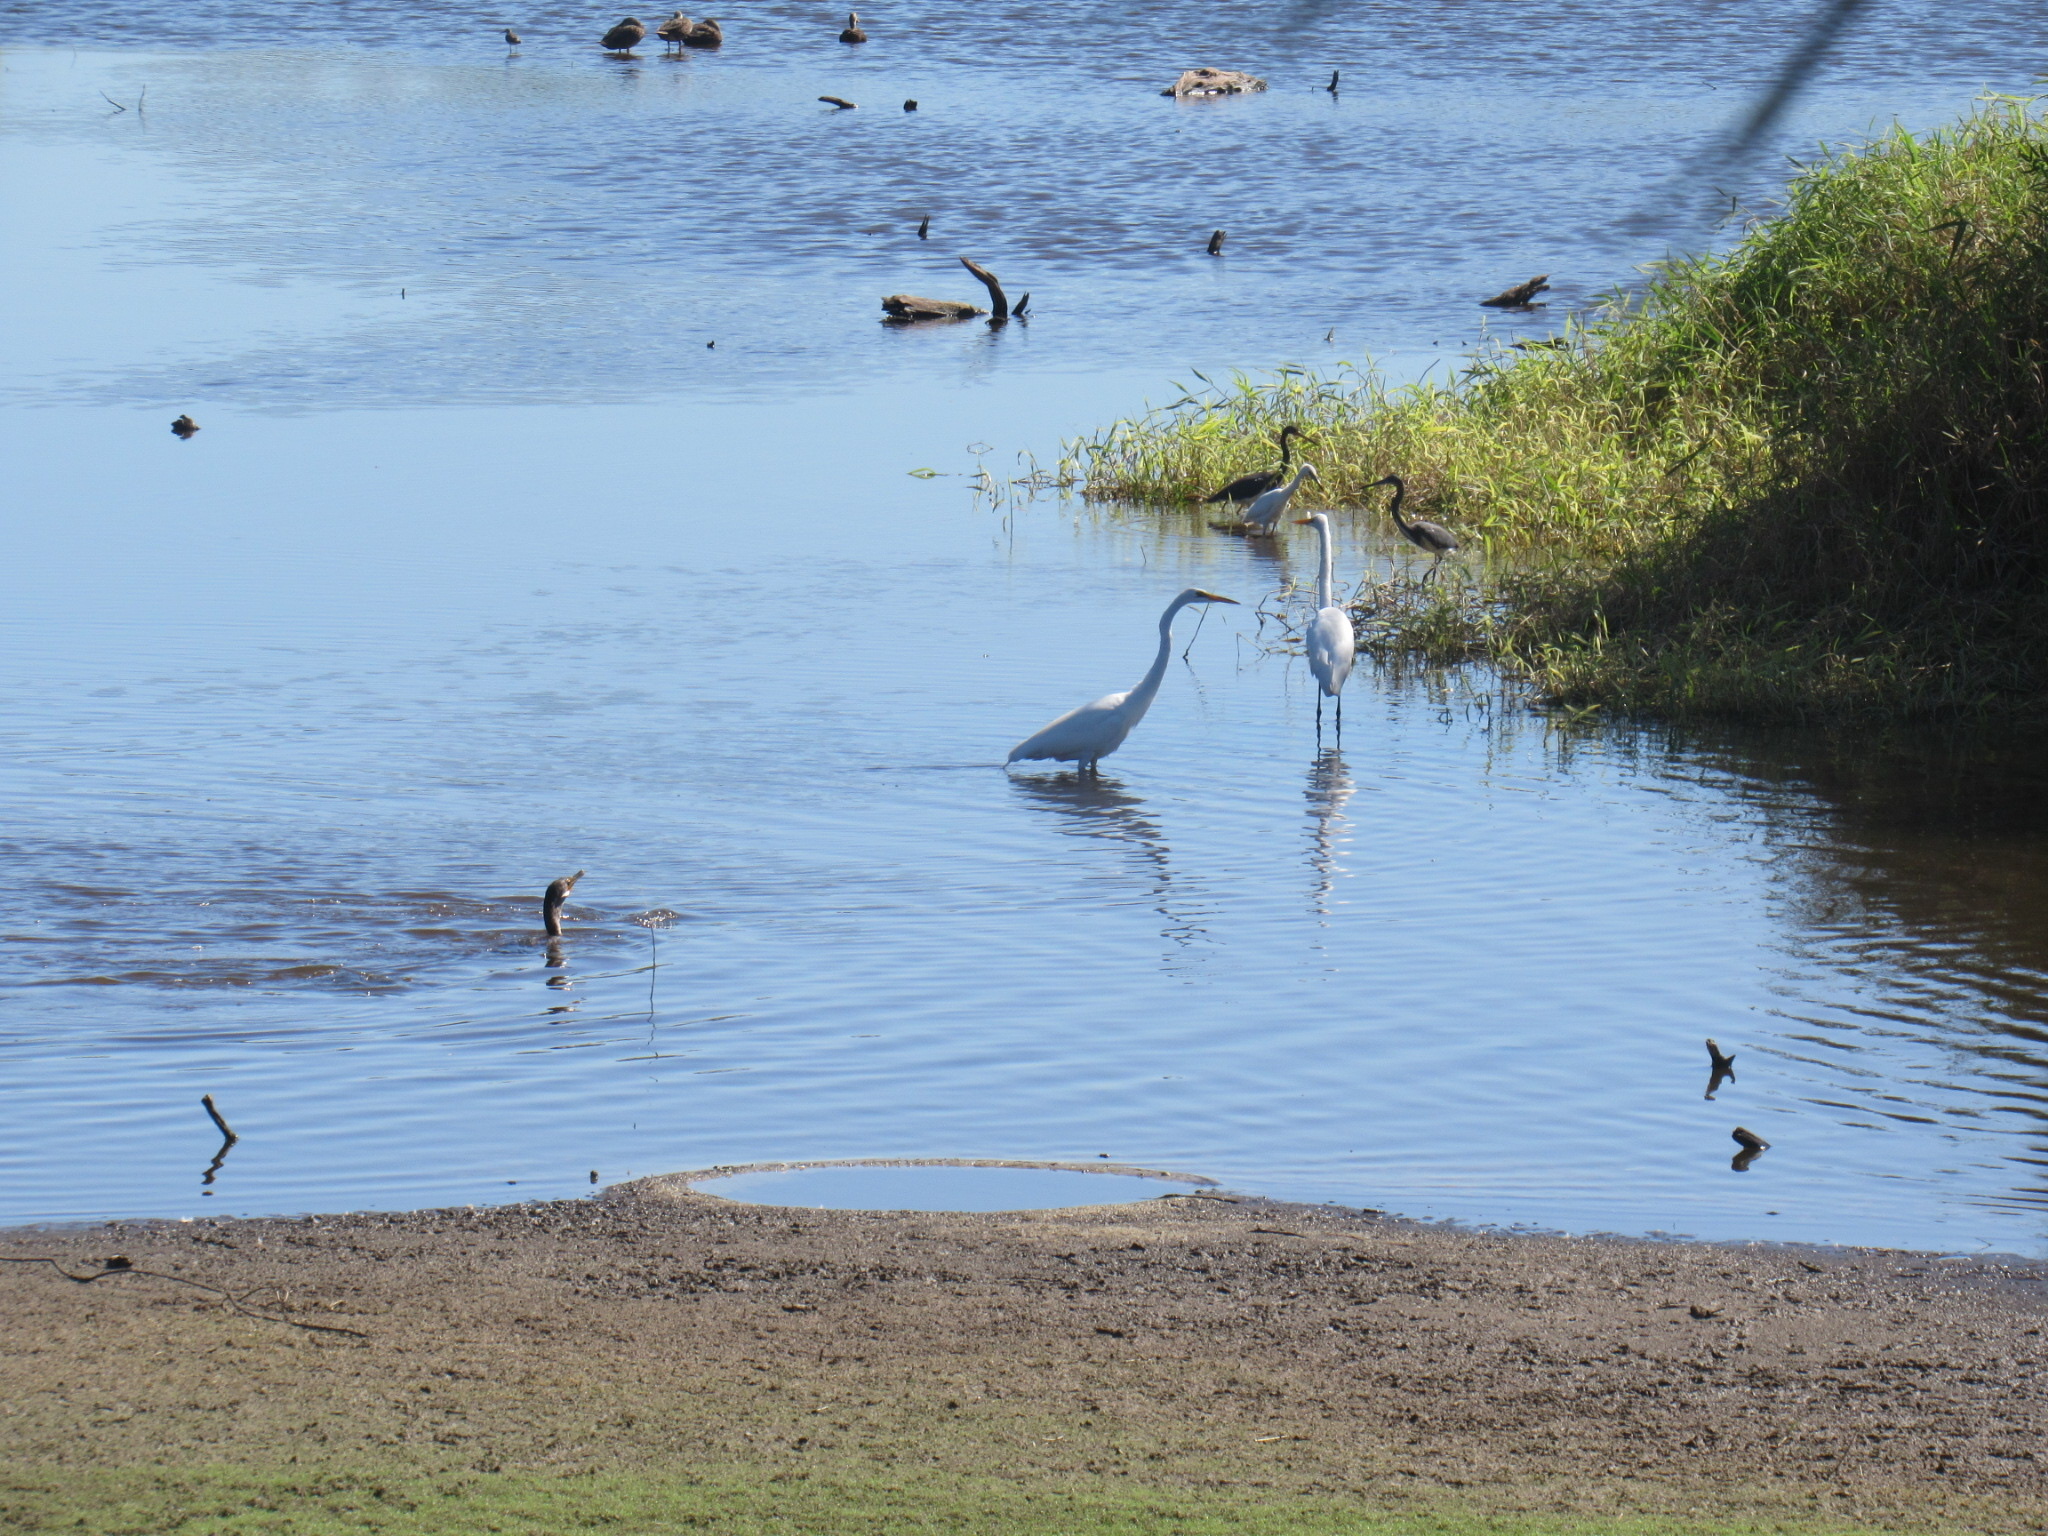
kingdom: Animalia
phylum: Chordata
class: Aves
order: Pelecaniformes
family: Ardeidae
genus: Ardea
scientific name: Ardea alba
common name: Great egret
